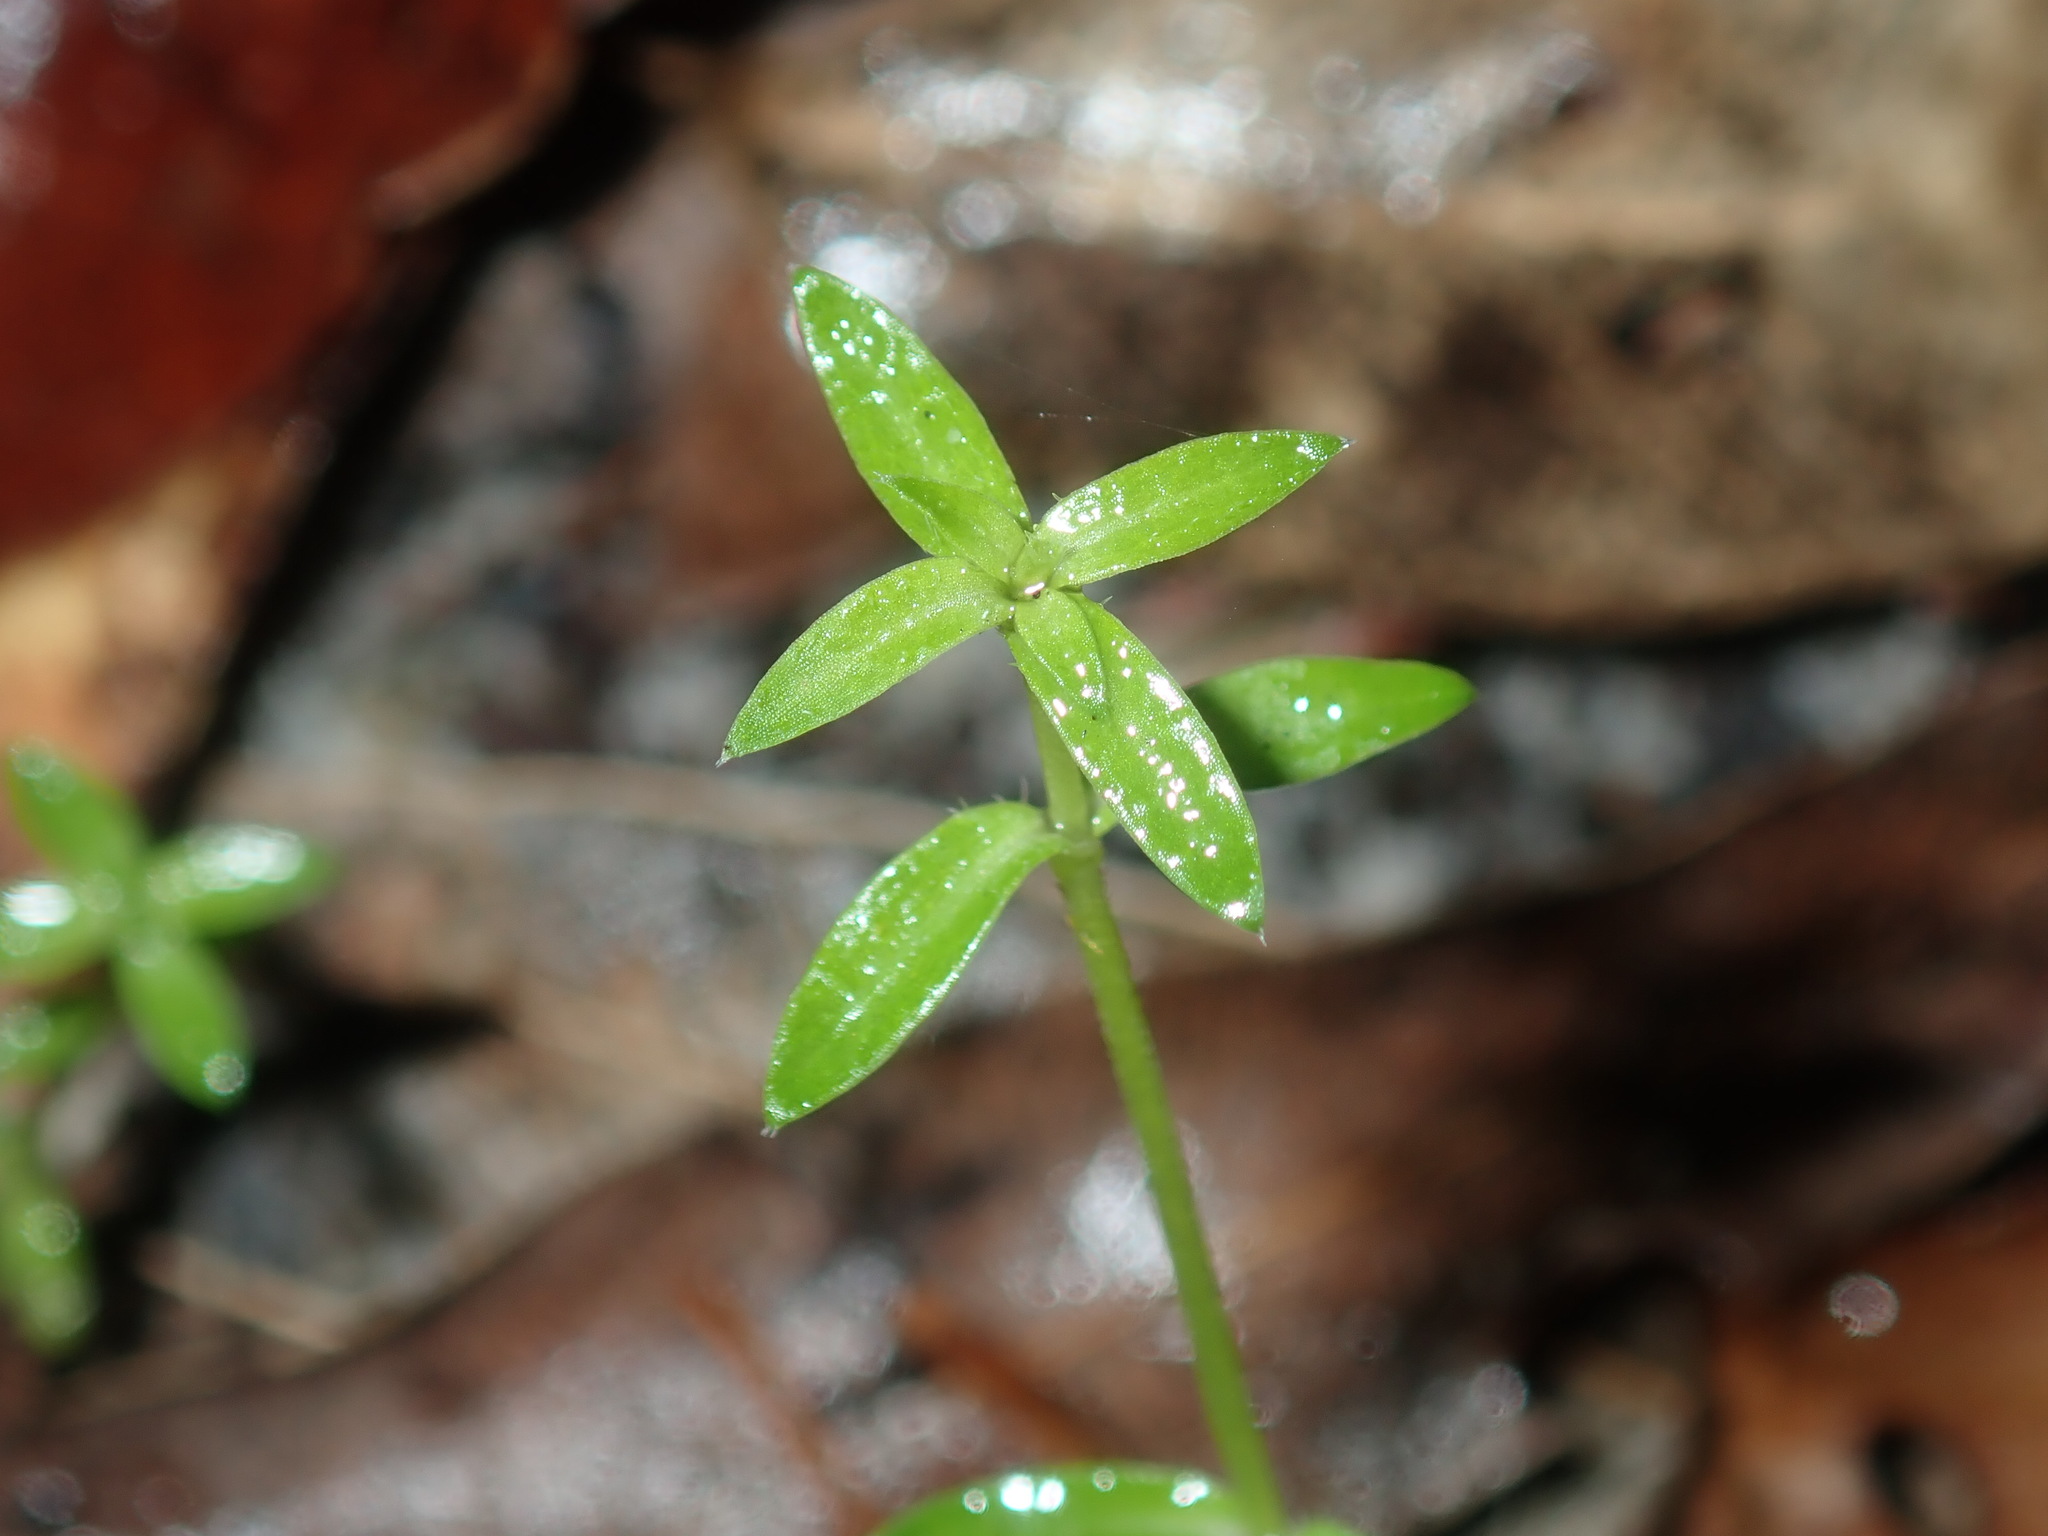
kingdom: Plantae
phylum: Tracheophyta
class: Magnoliopsida
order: Gentianales
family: Loganiaceae
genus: Mitrasacme
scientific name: Mitrasacme paludosa
